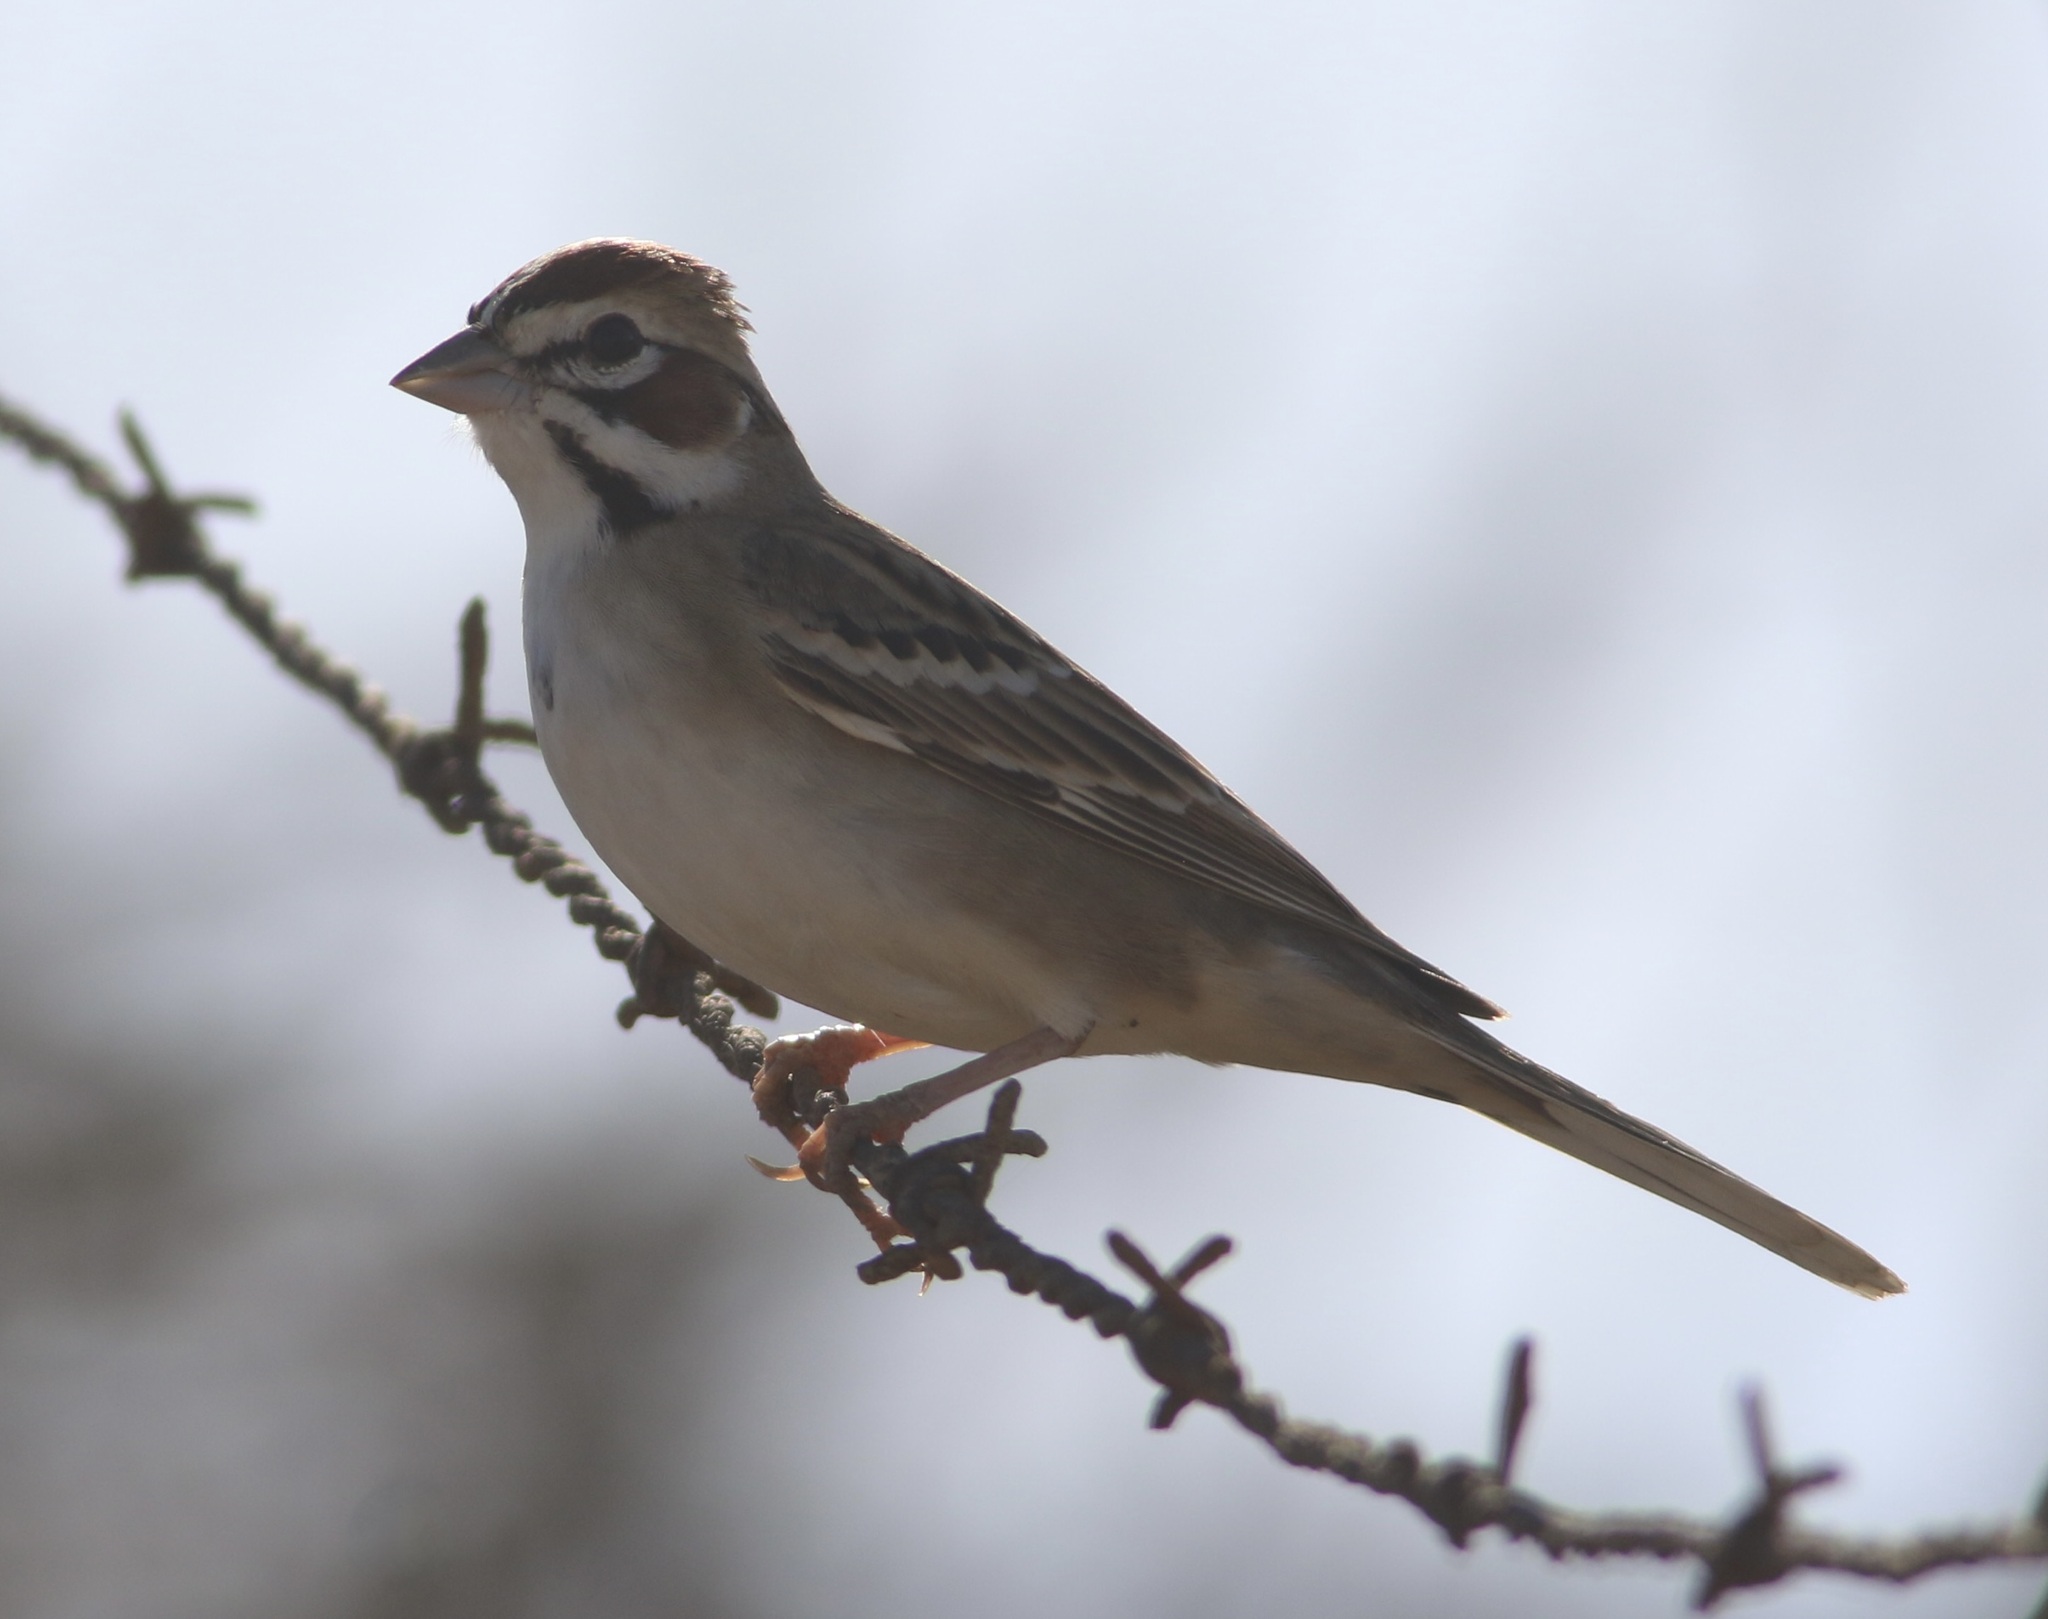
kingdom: Animalia
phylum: Chordata
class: Aves
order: Passeriformes
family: Passerellidae
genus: Chondestes
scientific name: Chondestes grammacus
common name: Lark sparrow
